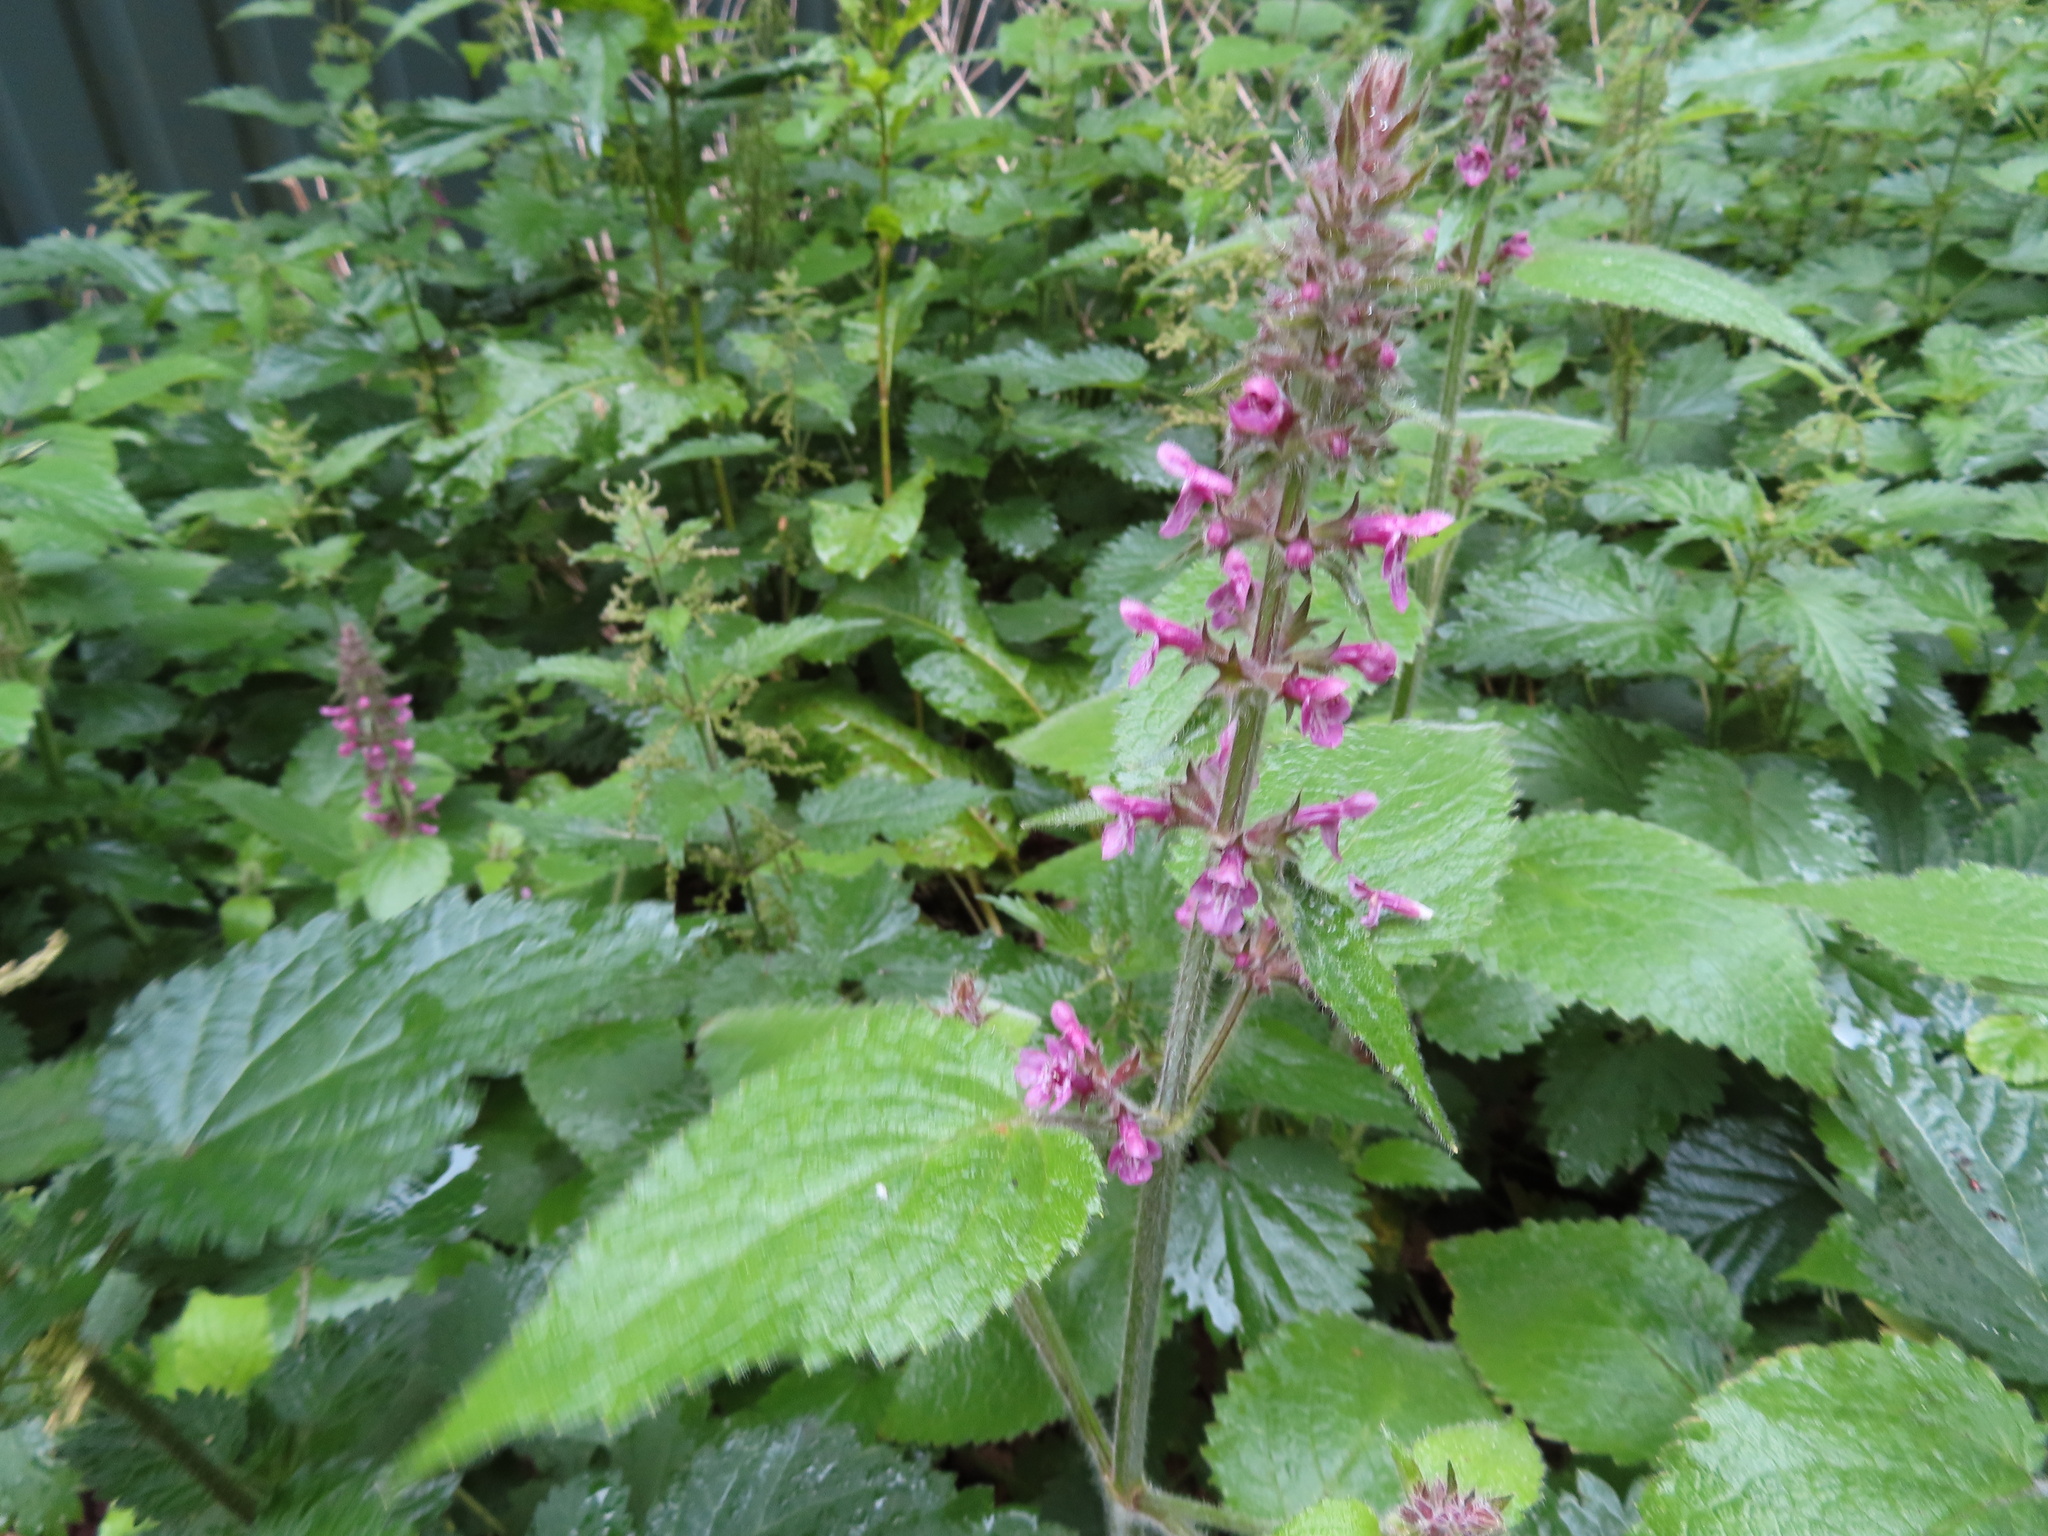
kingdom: Plantae
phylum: Tracheophyta
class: Magnoliopsida
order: Lamiales
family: Lamiaceae
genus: Stachys
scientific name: Stachys sylvatica
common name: Hedge woundwort
